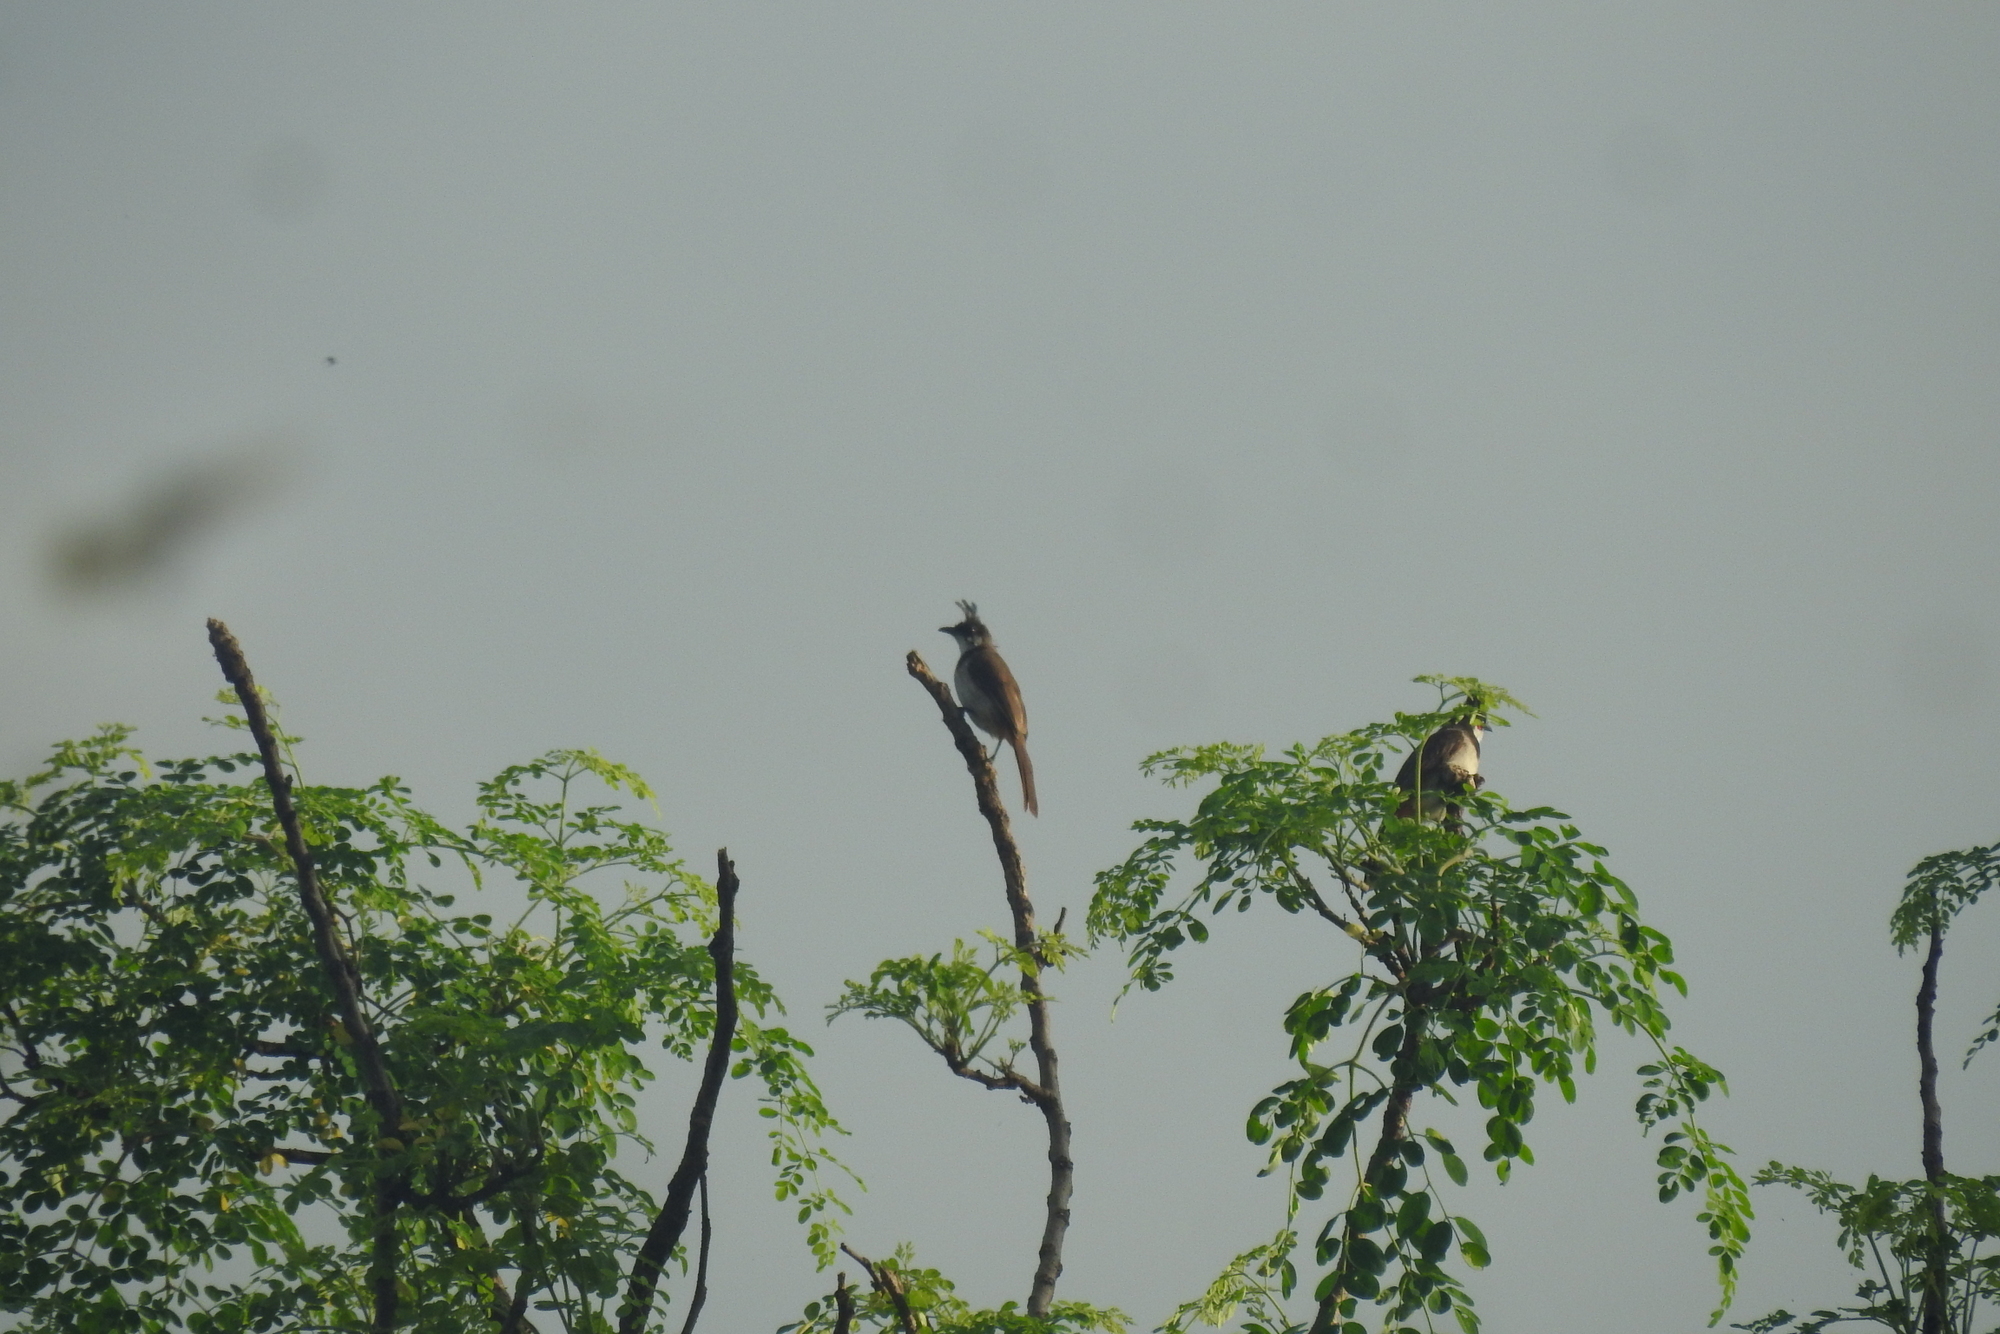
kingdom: Animalia
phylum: Chordata
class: Aves
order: Passeriformes
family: Pycnonotidae
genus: Pycnonotus
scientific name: Pycnonotus jocosus
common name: Red-whiskered bulbul
